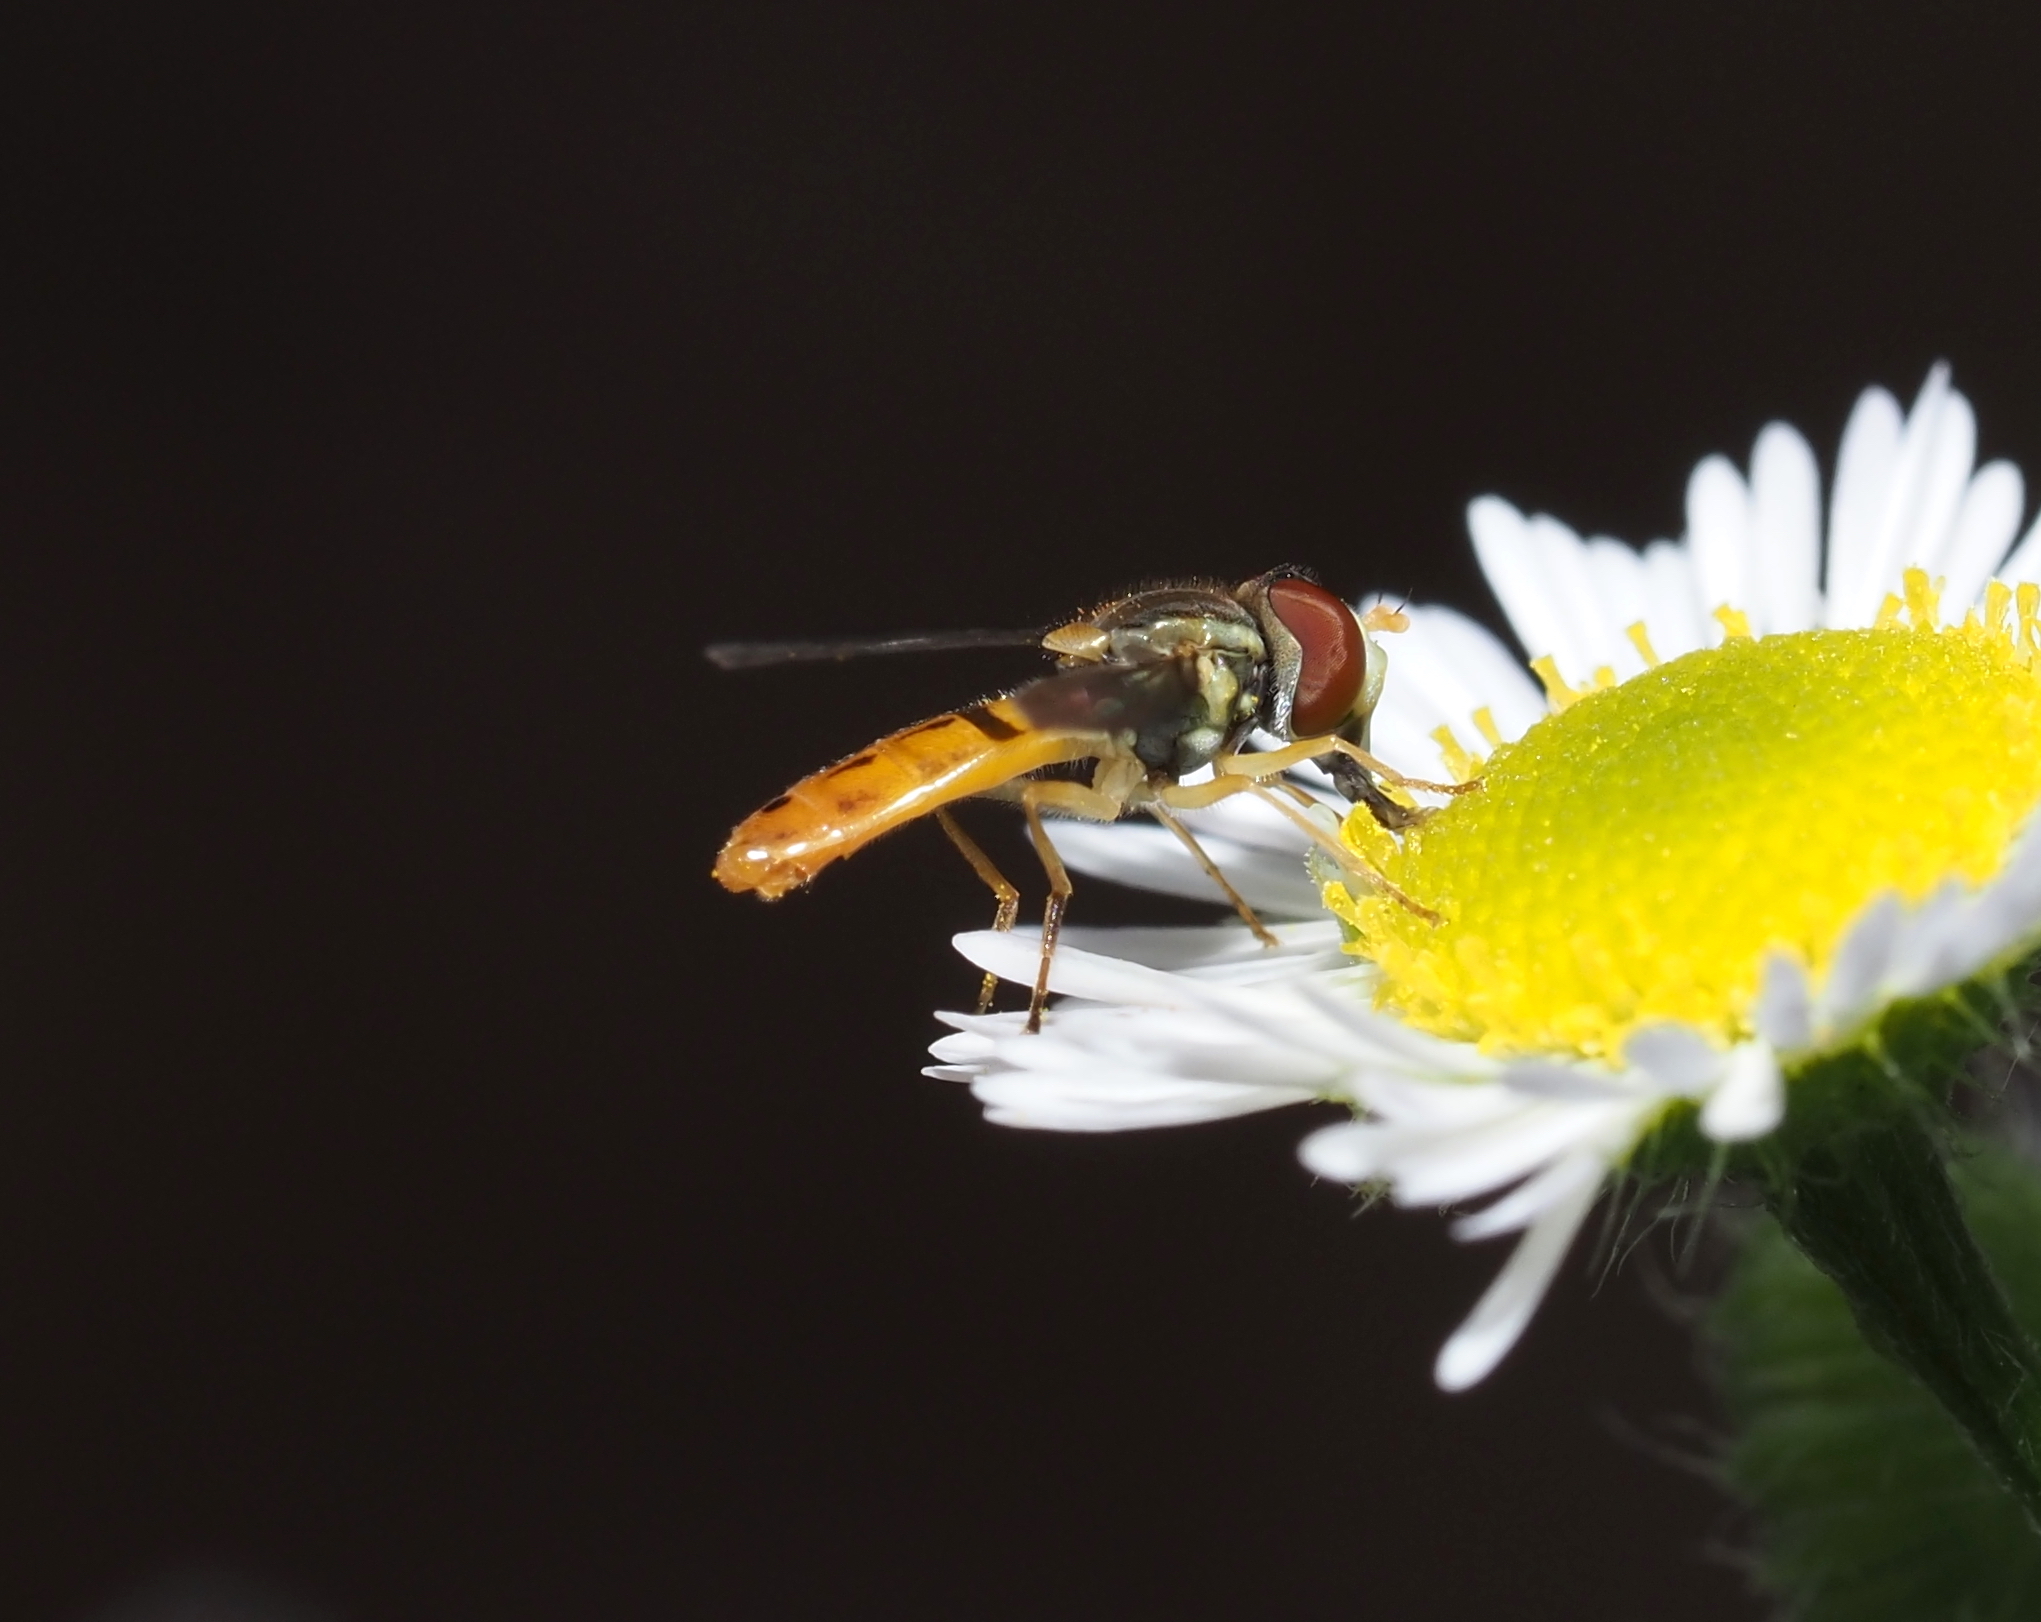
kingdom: Animalia
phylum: Arthropoda
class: Insecta
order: Diptera
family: Syrphidae
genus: Toxomerus
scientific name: Toxomerus marginatus
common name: Syrphid fly
